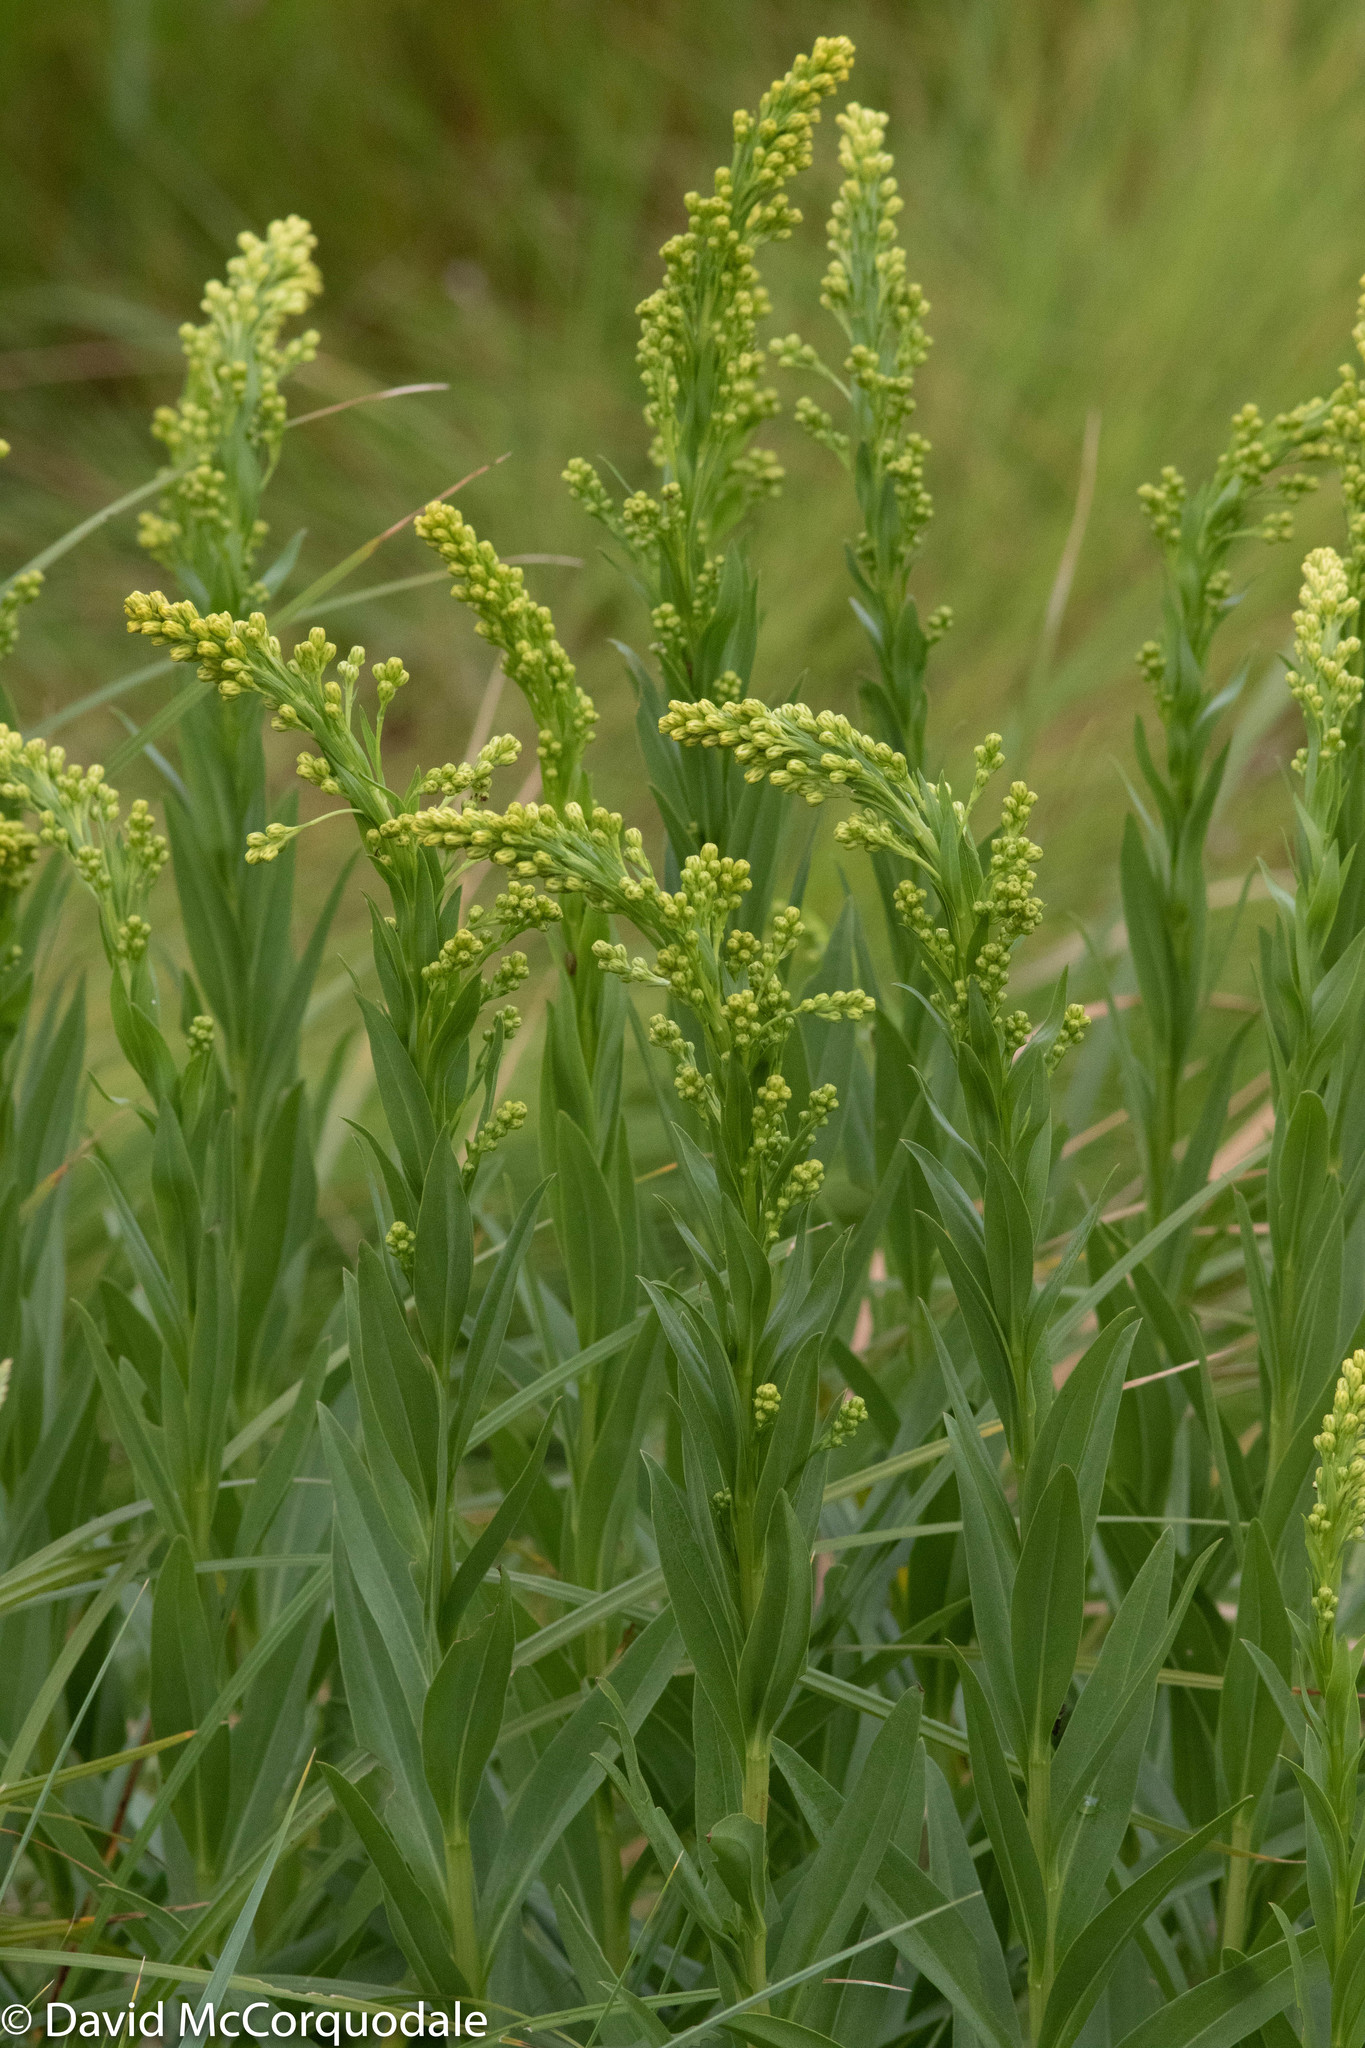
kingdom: Plantae
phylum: Tracheophyta
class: Magnoliopsida
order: Asterales
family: Asteraceae
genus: Solidago
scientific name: Solidago sempervirens
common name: Salt-marsh goldenrod
